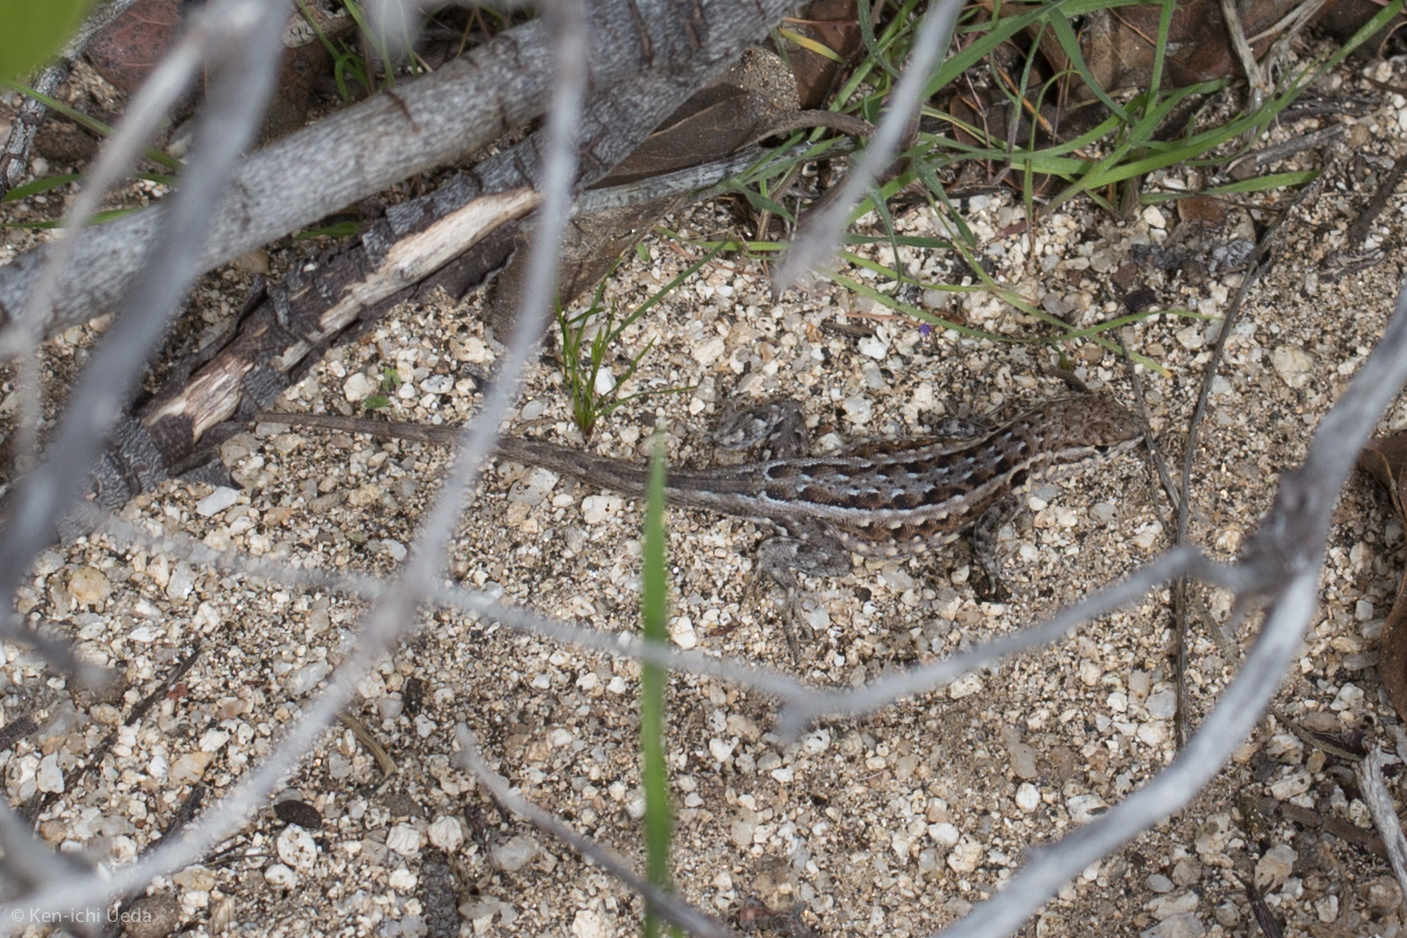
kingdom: Animalia
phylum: Chordata
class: Squamata
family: Phrynosomatidae
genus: Uta
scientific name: Uta stansburiana
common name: Side-blotched lizard
